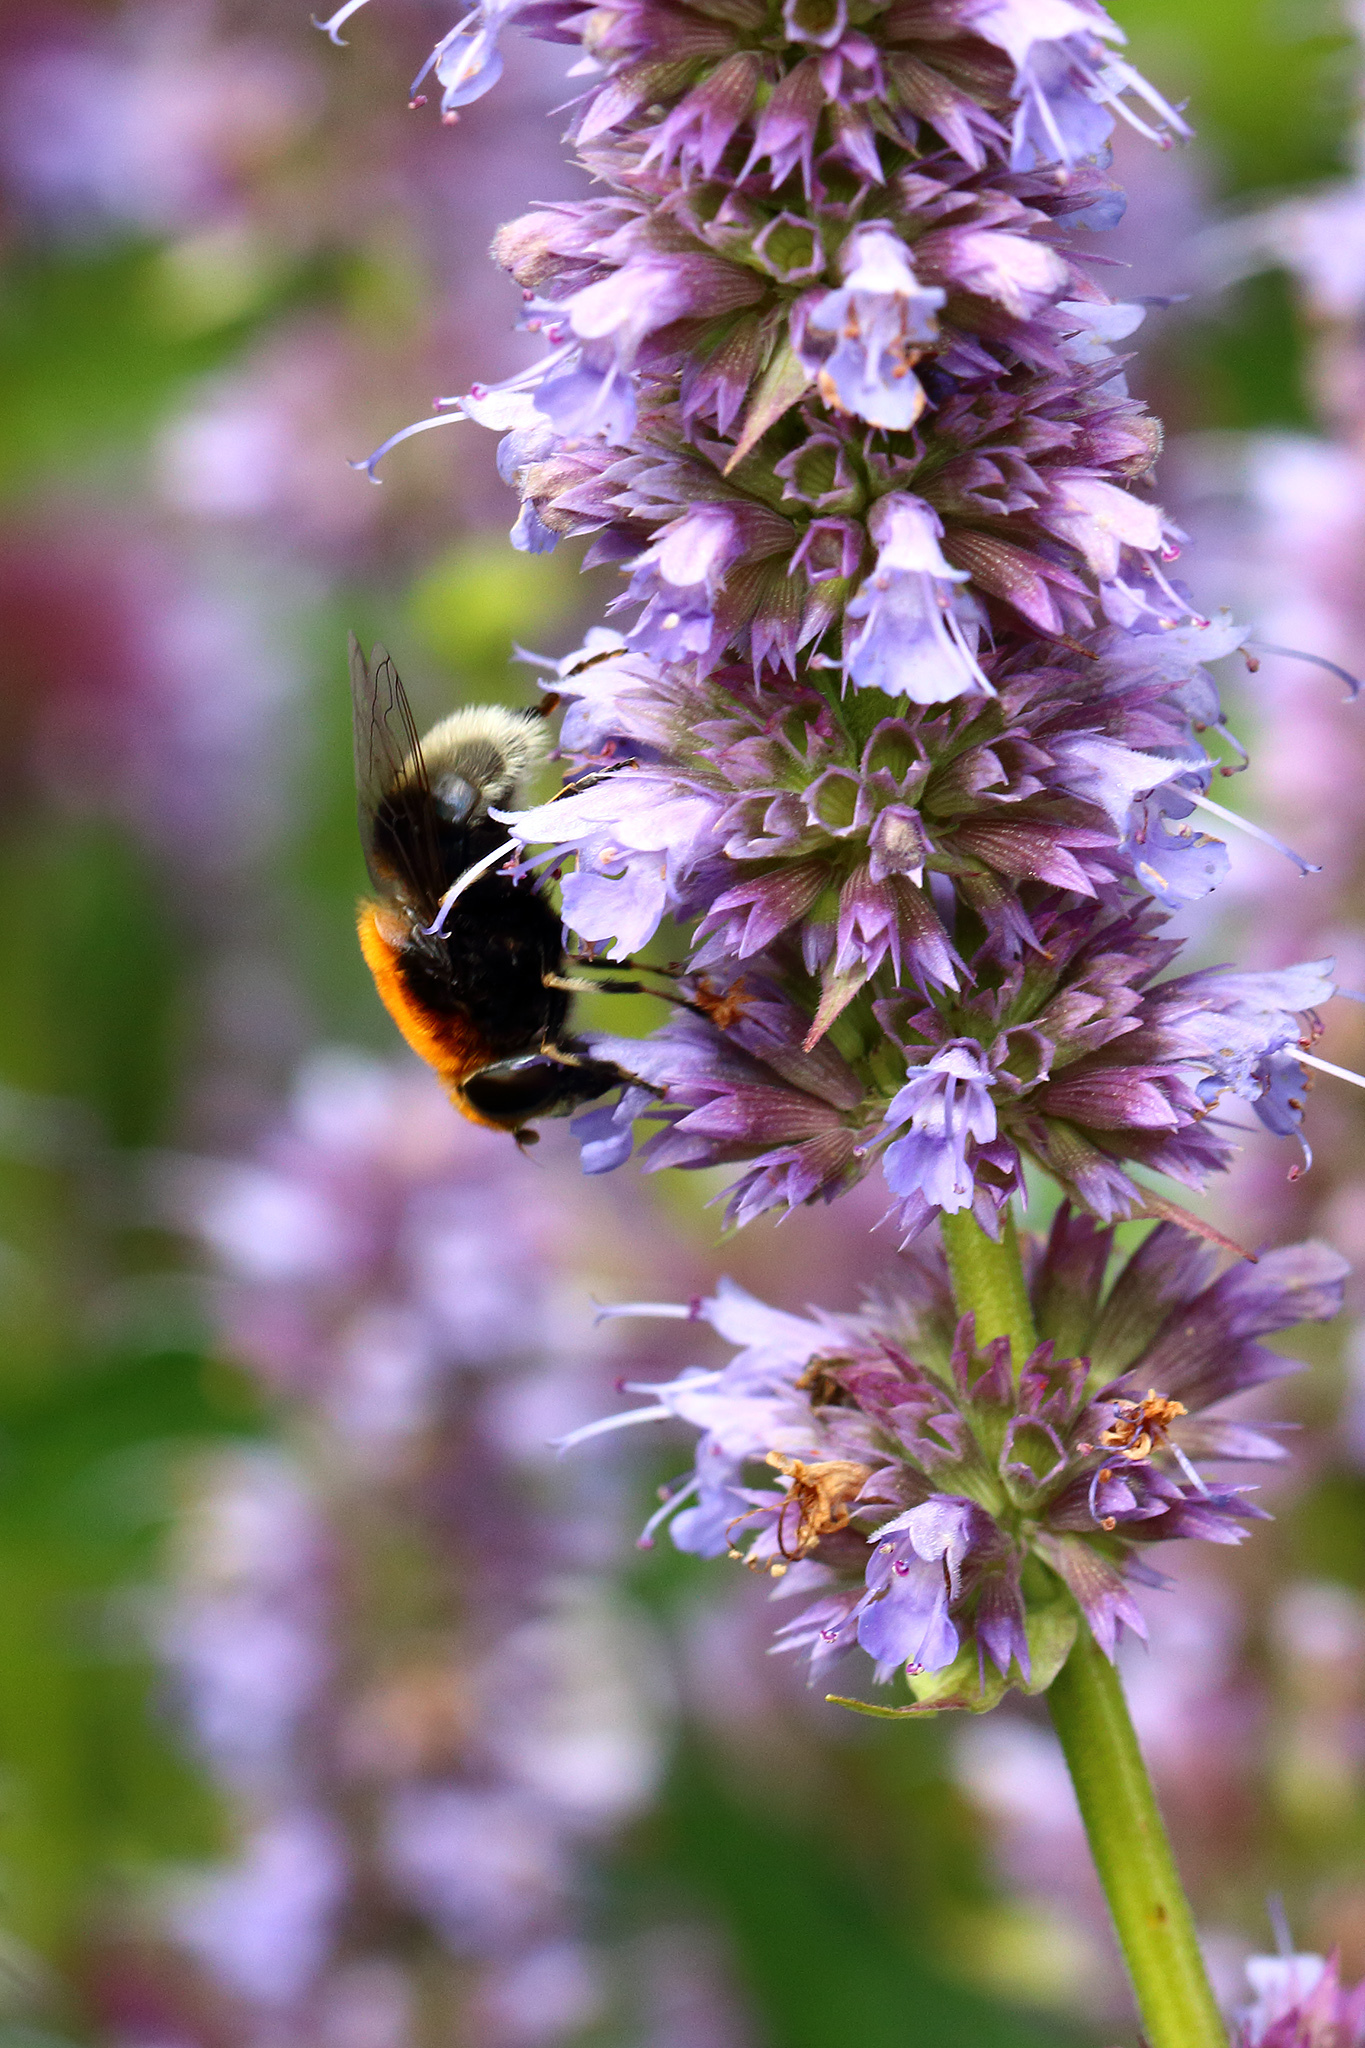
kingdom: Animalia
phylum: Arthropoda
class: Insecta
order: Diptera
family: Syrphidae
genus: Eristalis
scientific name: Eristalis intricaria
